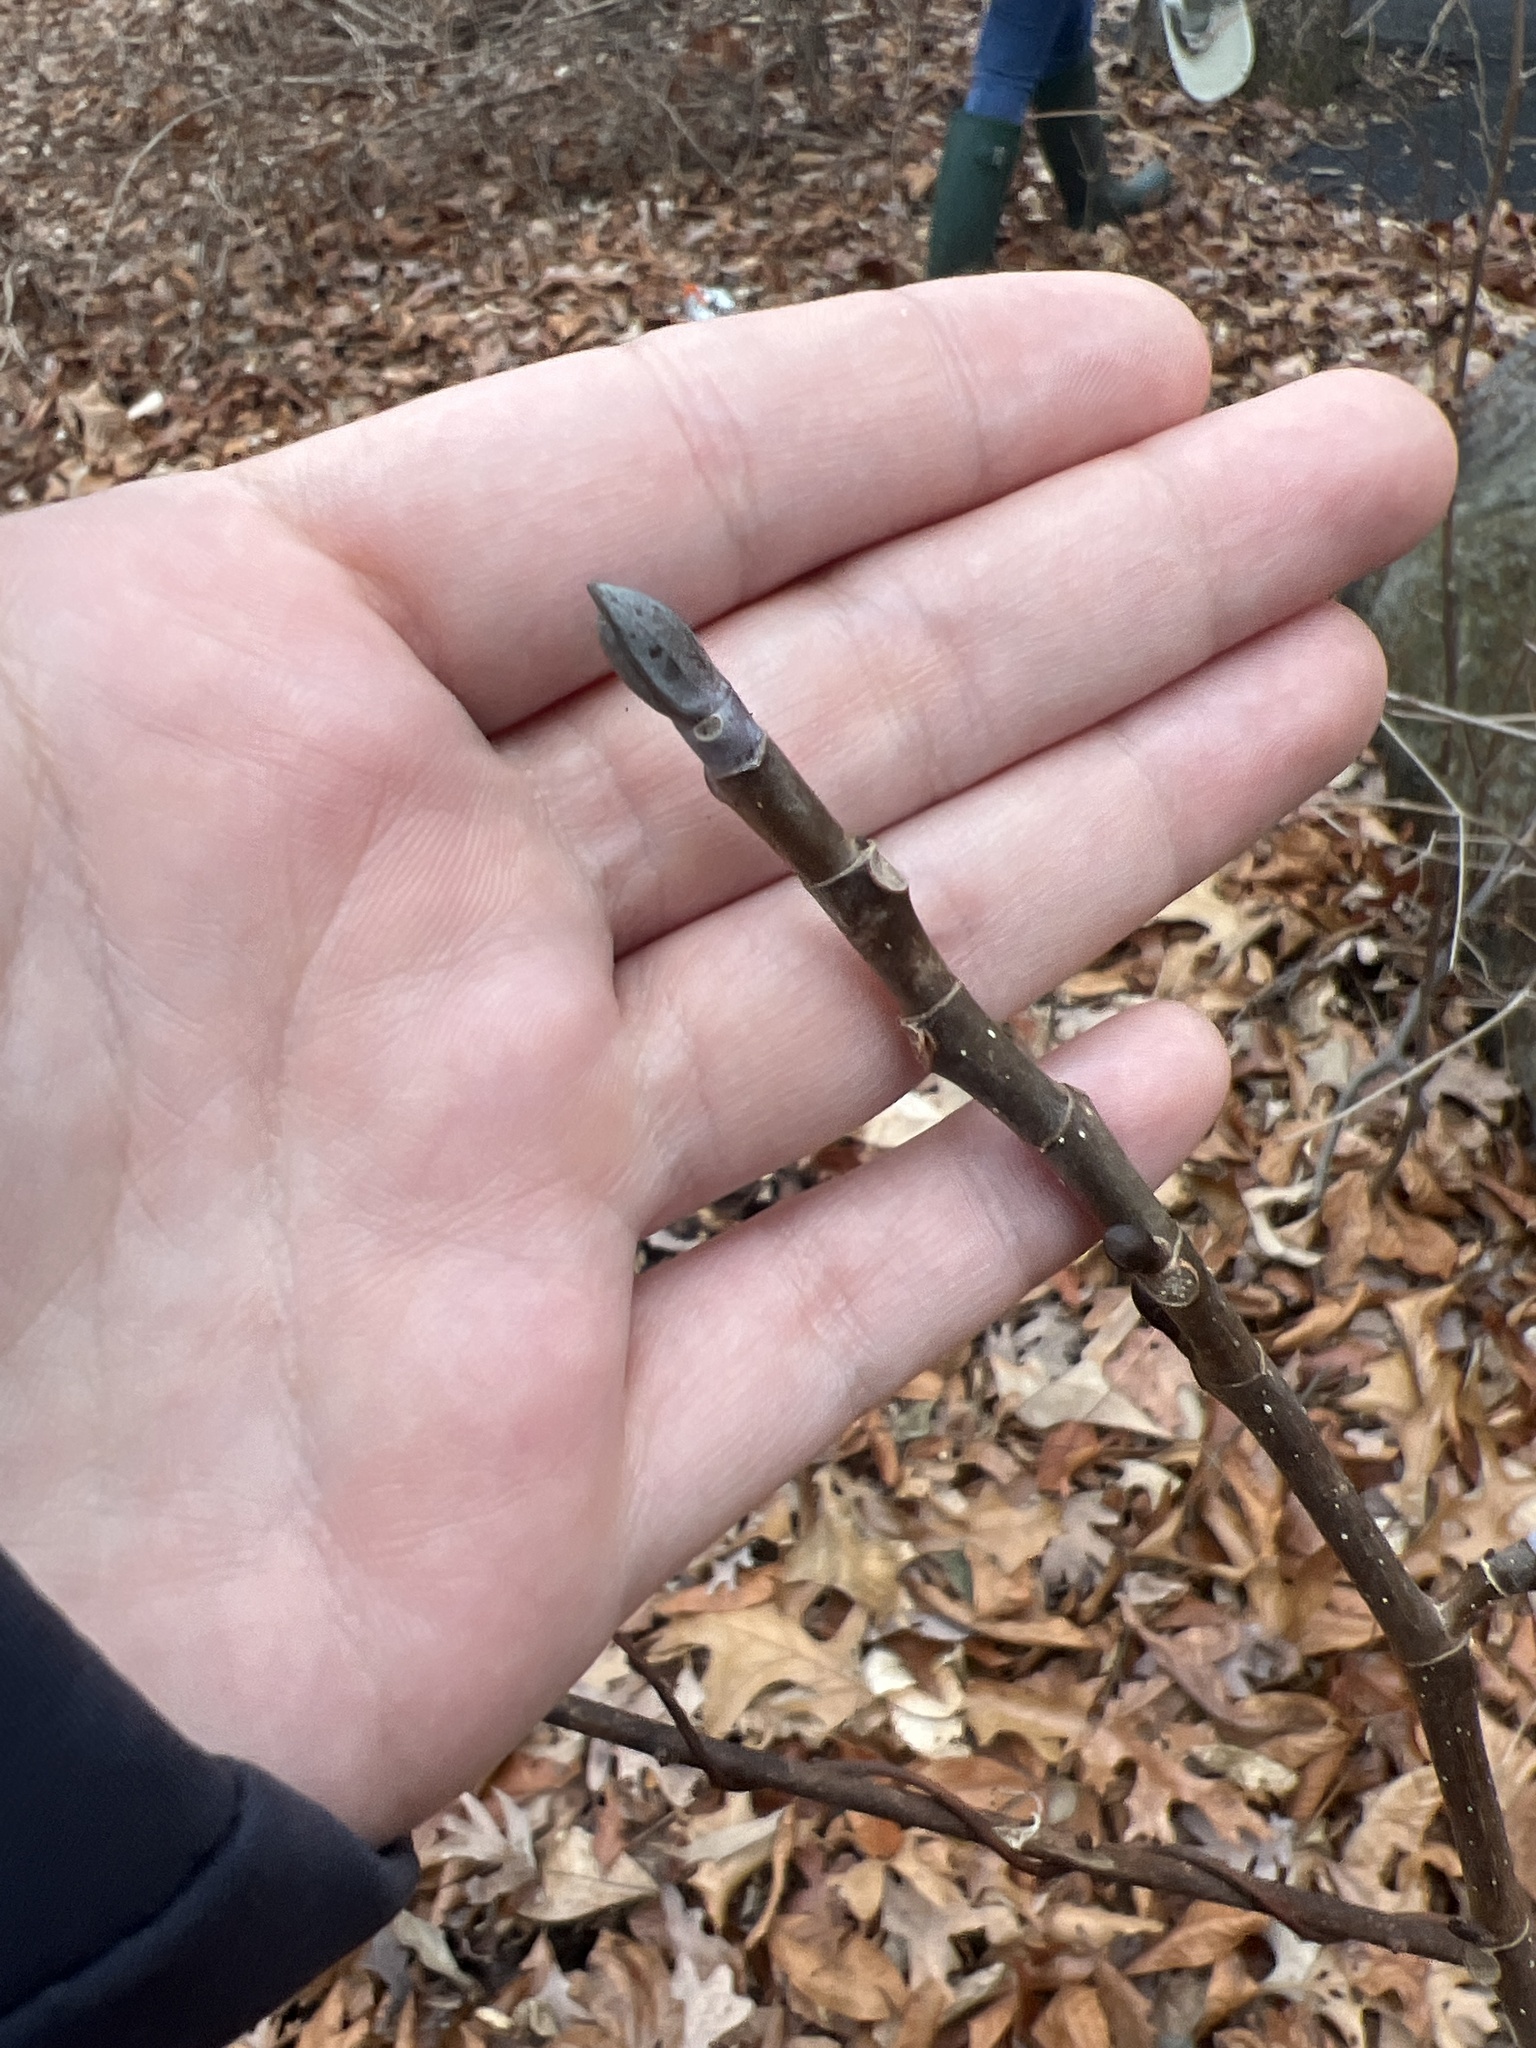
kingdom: Plantae
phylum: Tracheophyta
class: Magnoliopsida
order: Magnoliales
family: Magnoliaceae
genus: Liriodendron
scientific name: Liriodendron tulipifera
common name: Tulip tree
